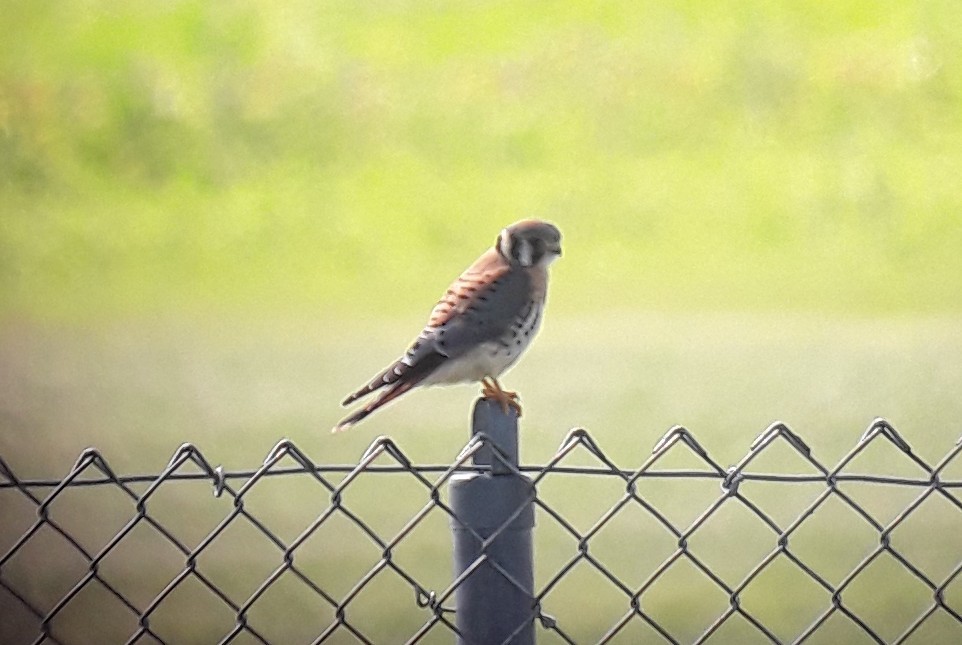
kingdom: Animalia
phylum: Chordata
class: Aves
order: Falconiformes
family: Falconidae
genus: Falco
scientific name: Falco sparverius
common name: American kestrel
